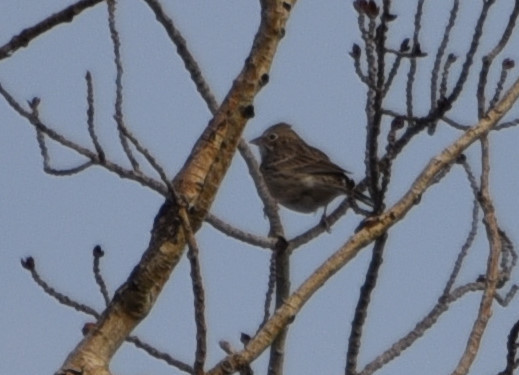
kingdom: Animalia
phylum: Chordata
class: Aves
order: Passeriformes
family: Passerellidae
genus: Pooecetes
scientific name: Pooecetes gramineus
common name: Vesper sparrow
